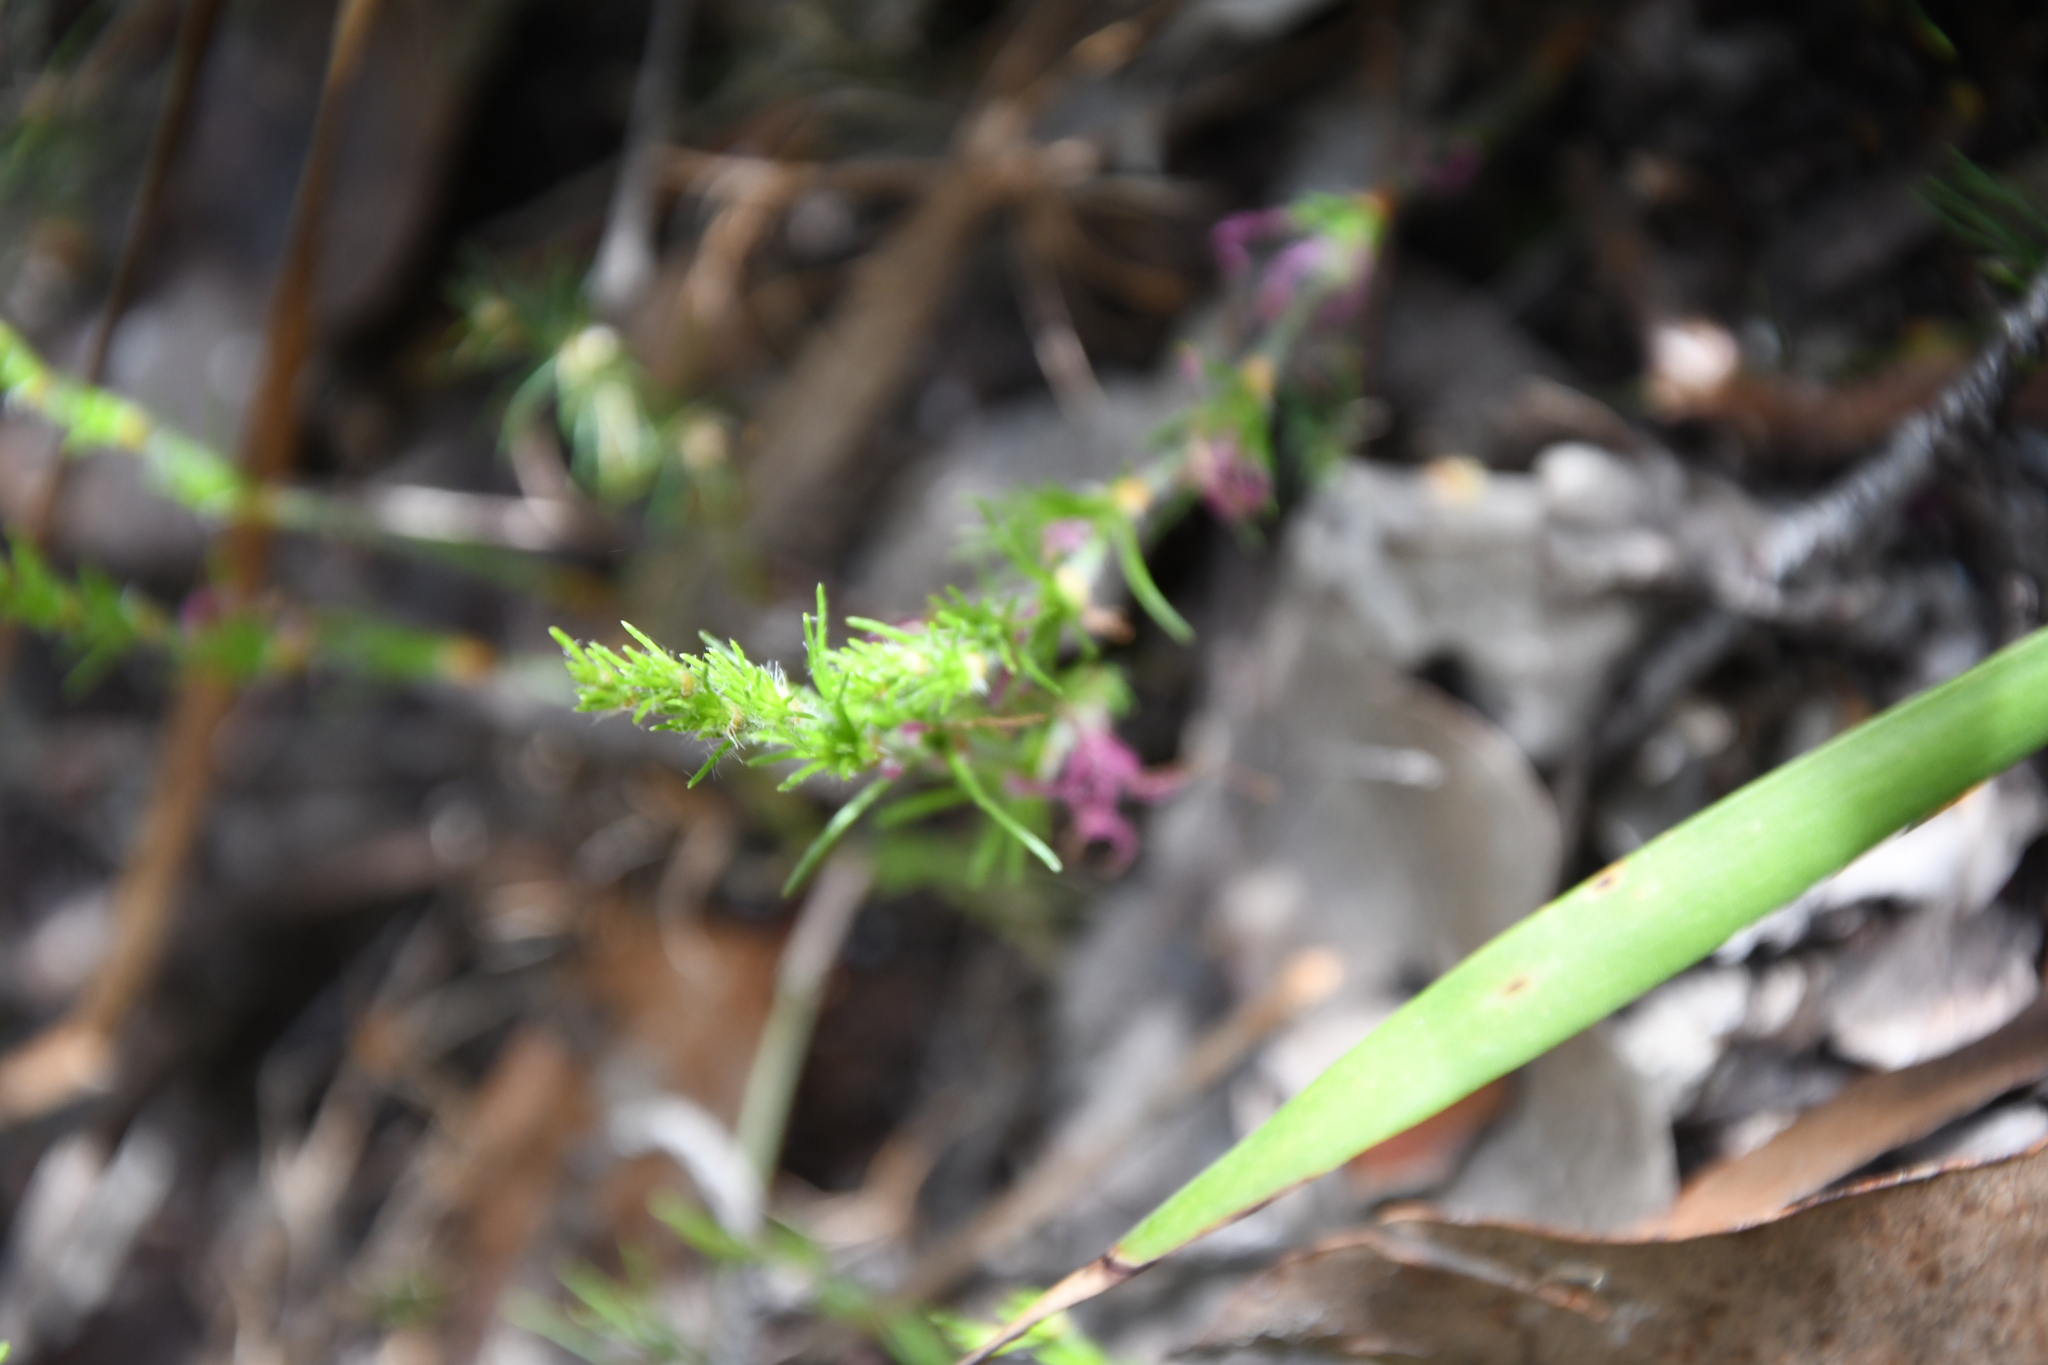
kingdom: Plantae
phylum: Tracheophyta
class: Liliopsida
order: Poales
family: Restionaceae
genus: Desmocladus
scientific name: Desmocladus fasciculatus
